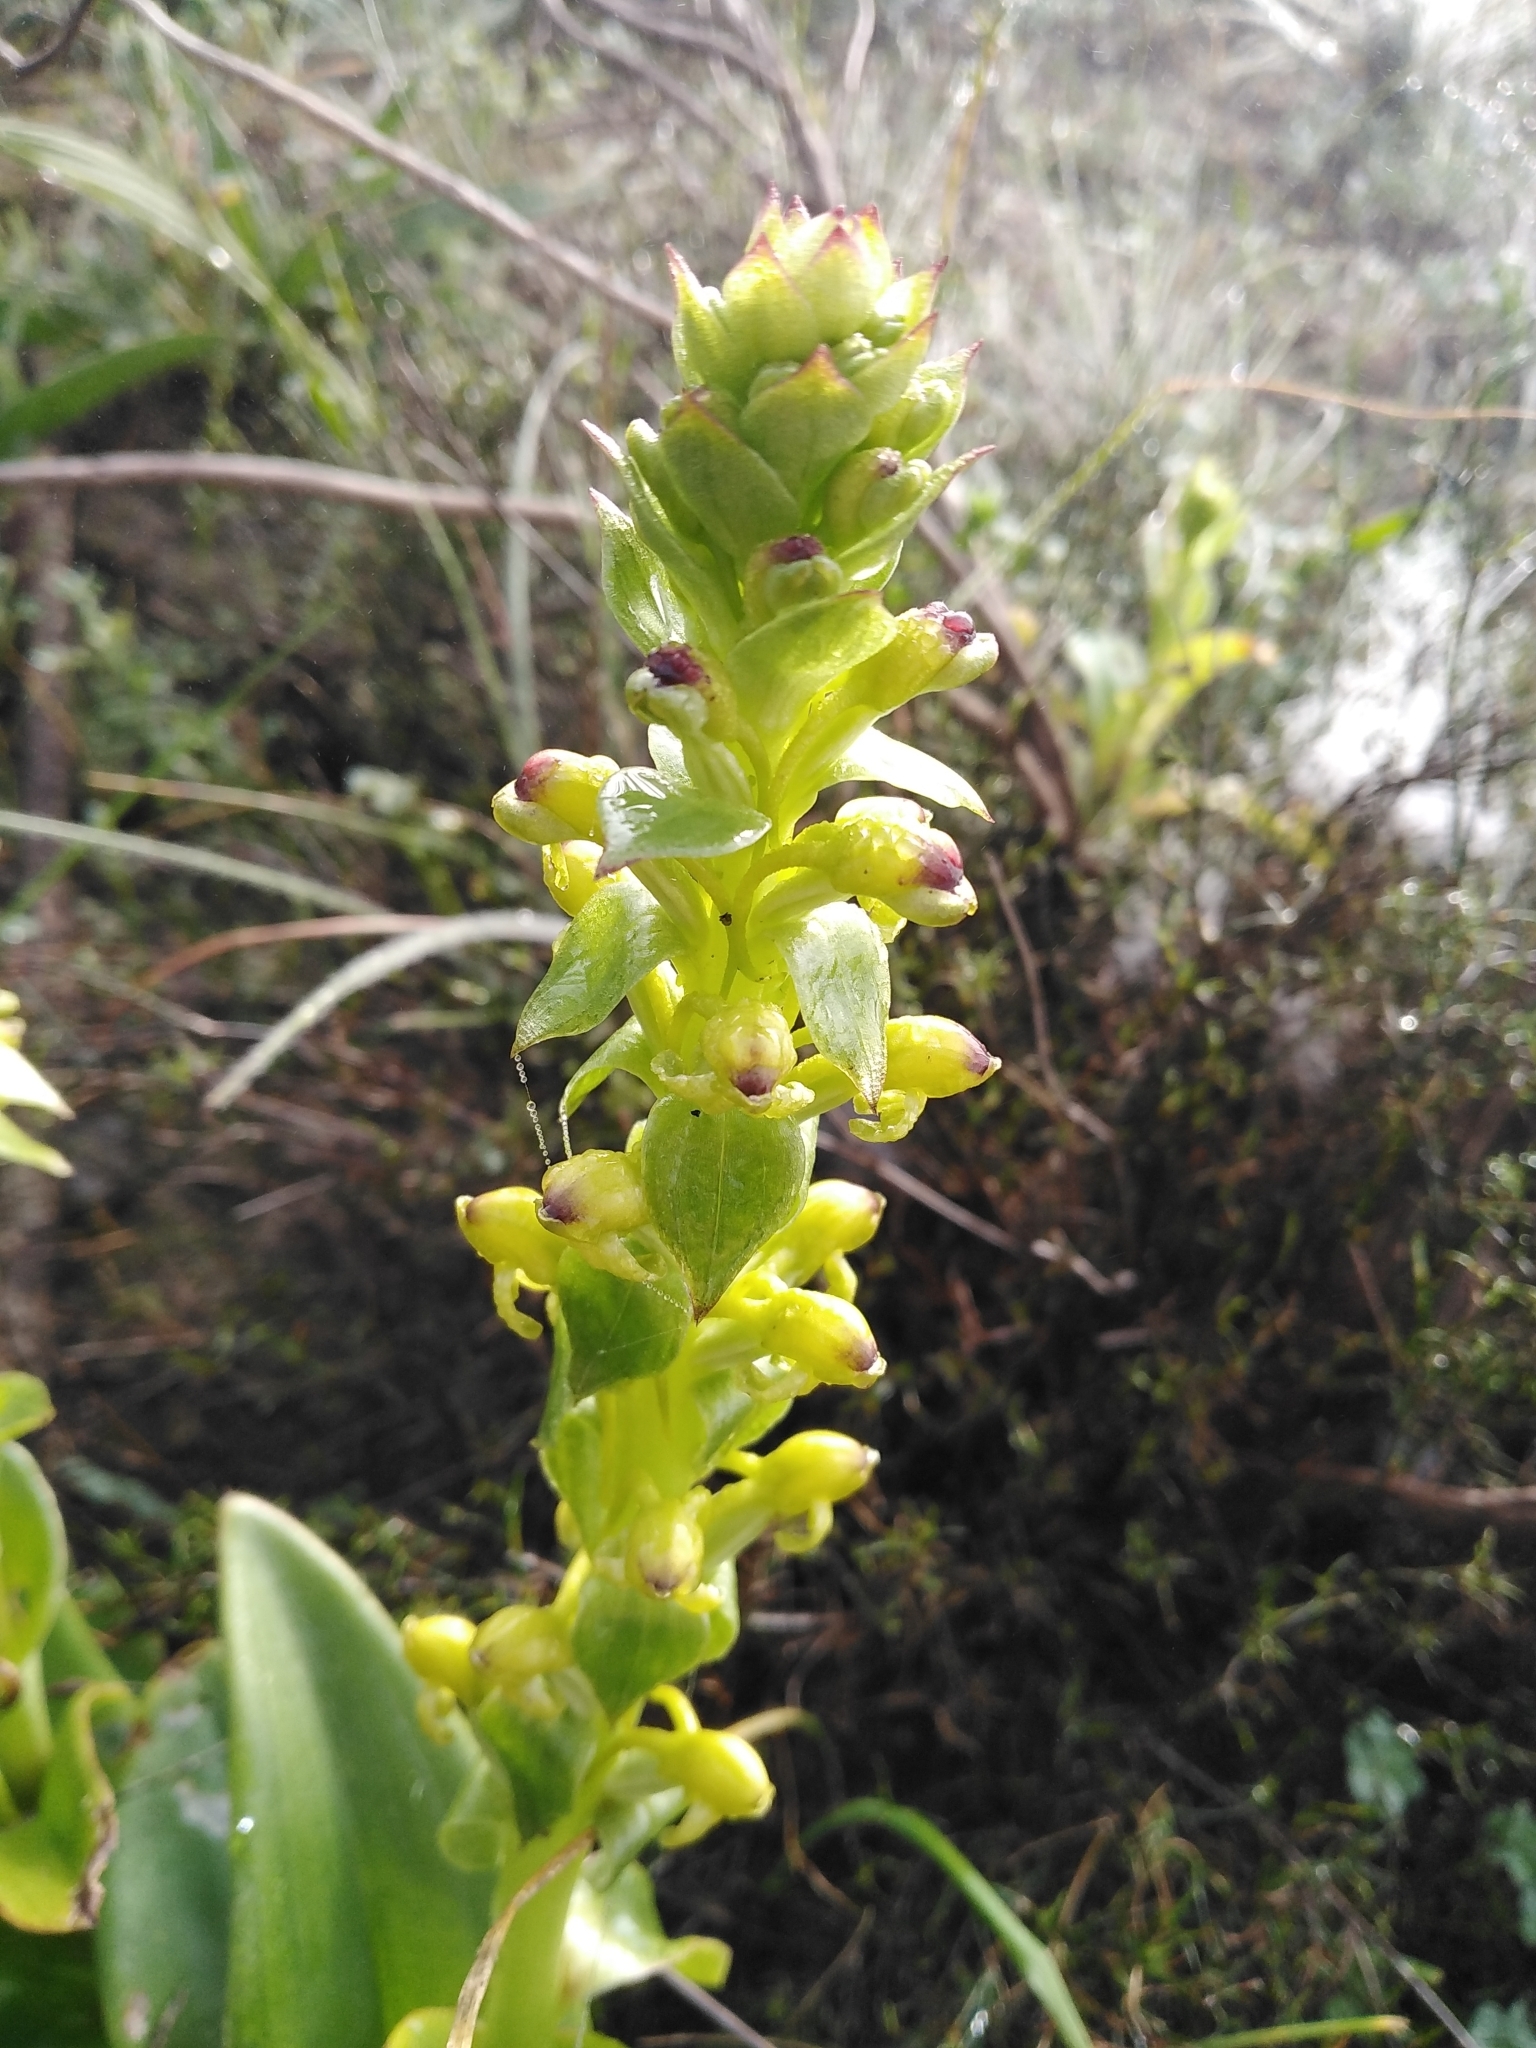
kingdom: Plantae
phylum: Tracheophyta
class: Liliopsida
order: Asparagales
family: Orchidaceae
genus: Satyrium
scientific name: Satyrium odorum
